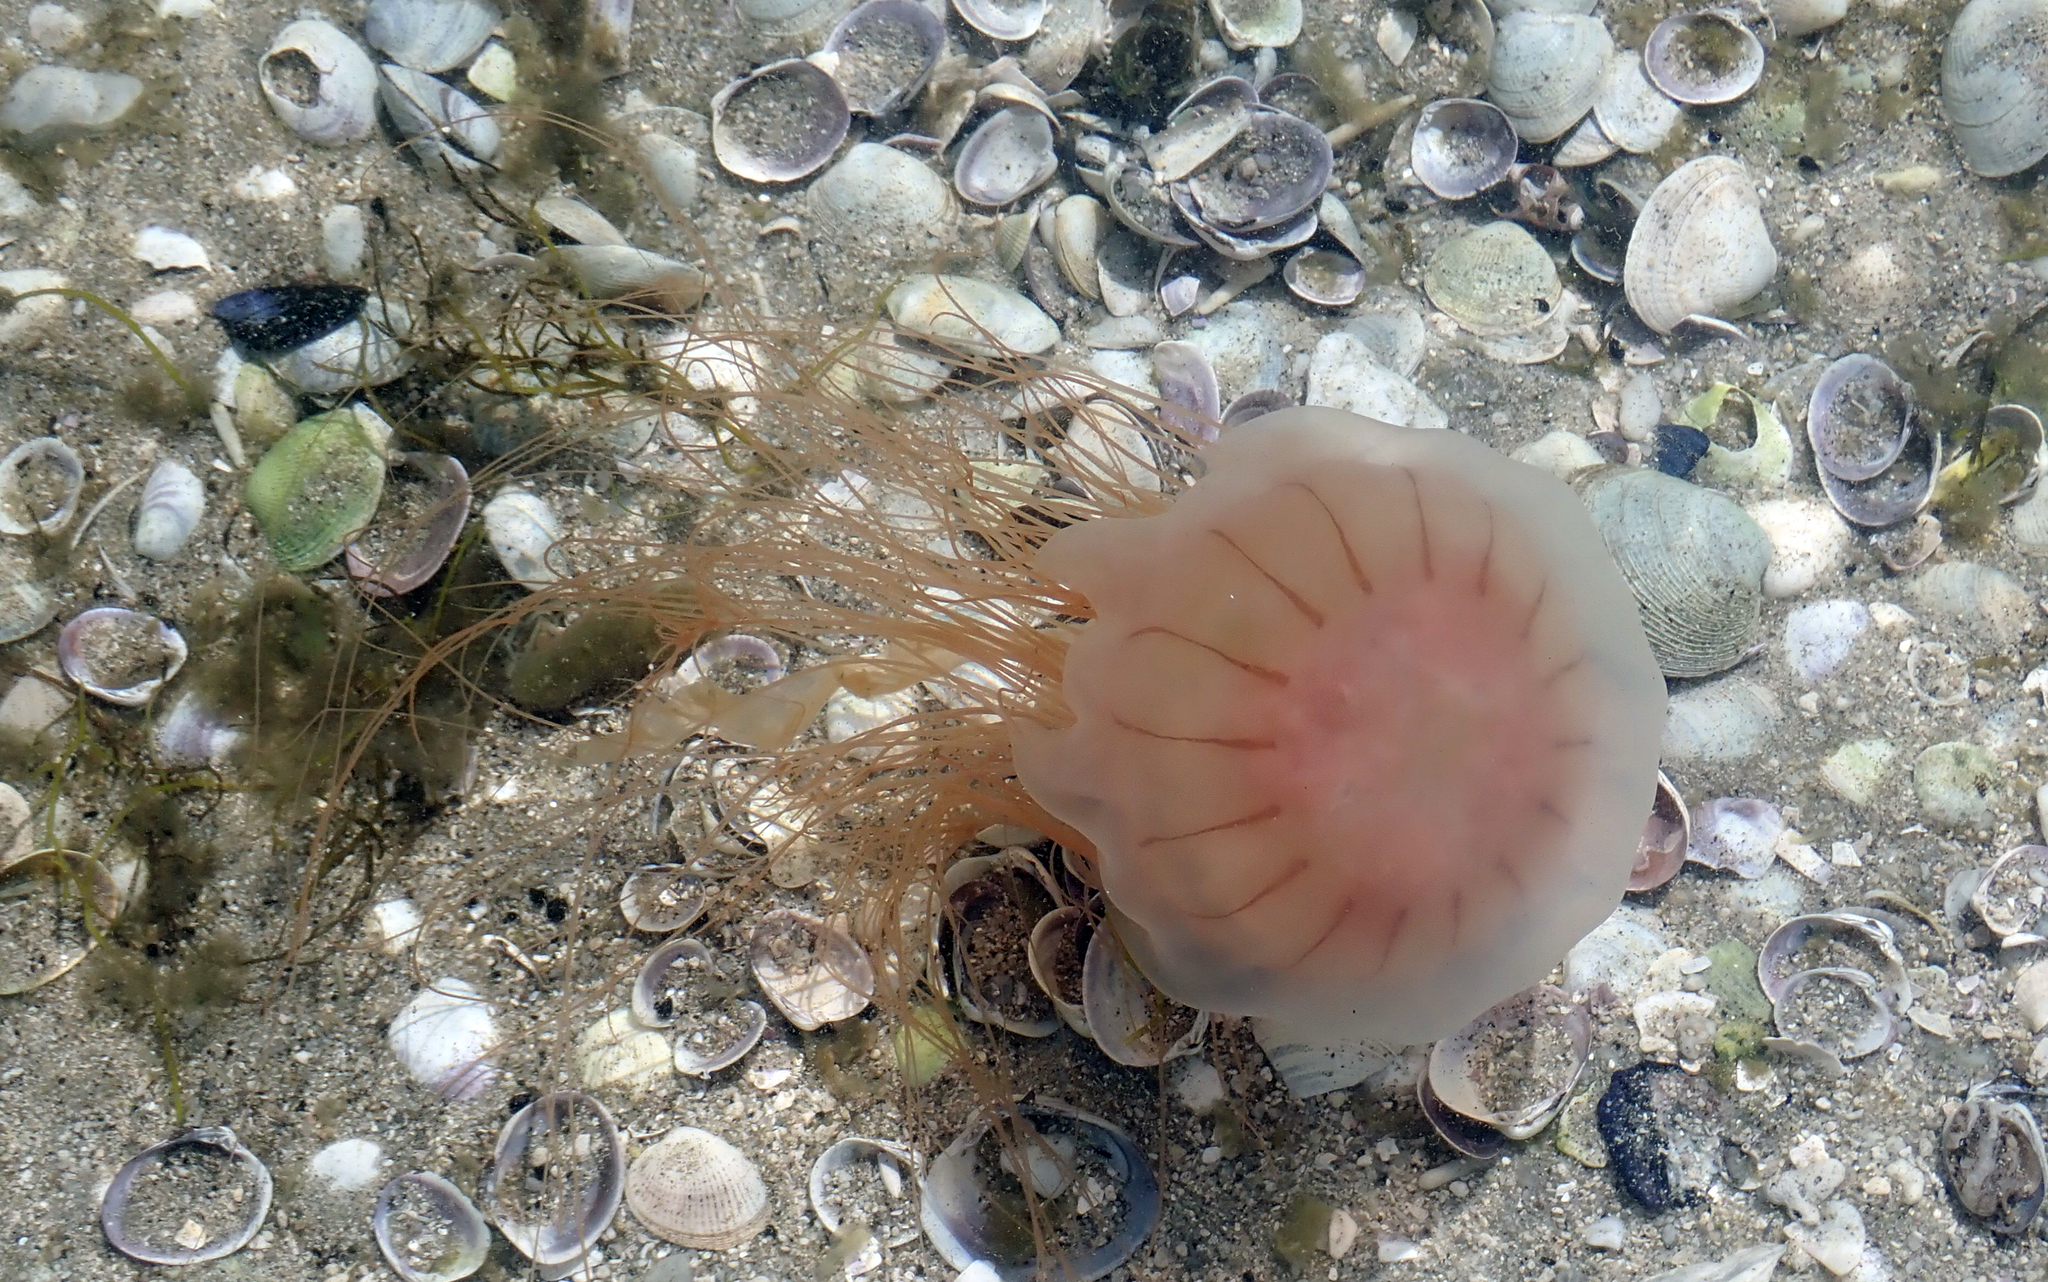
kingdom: Animalia
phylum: Cnidaria
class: Scyphozoa
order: Semaeostomeae
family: Cyaneidae
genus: Desmonema
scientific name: Desmonema gaudichaudi
